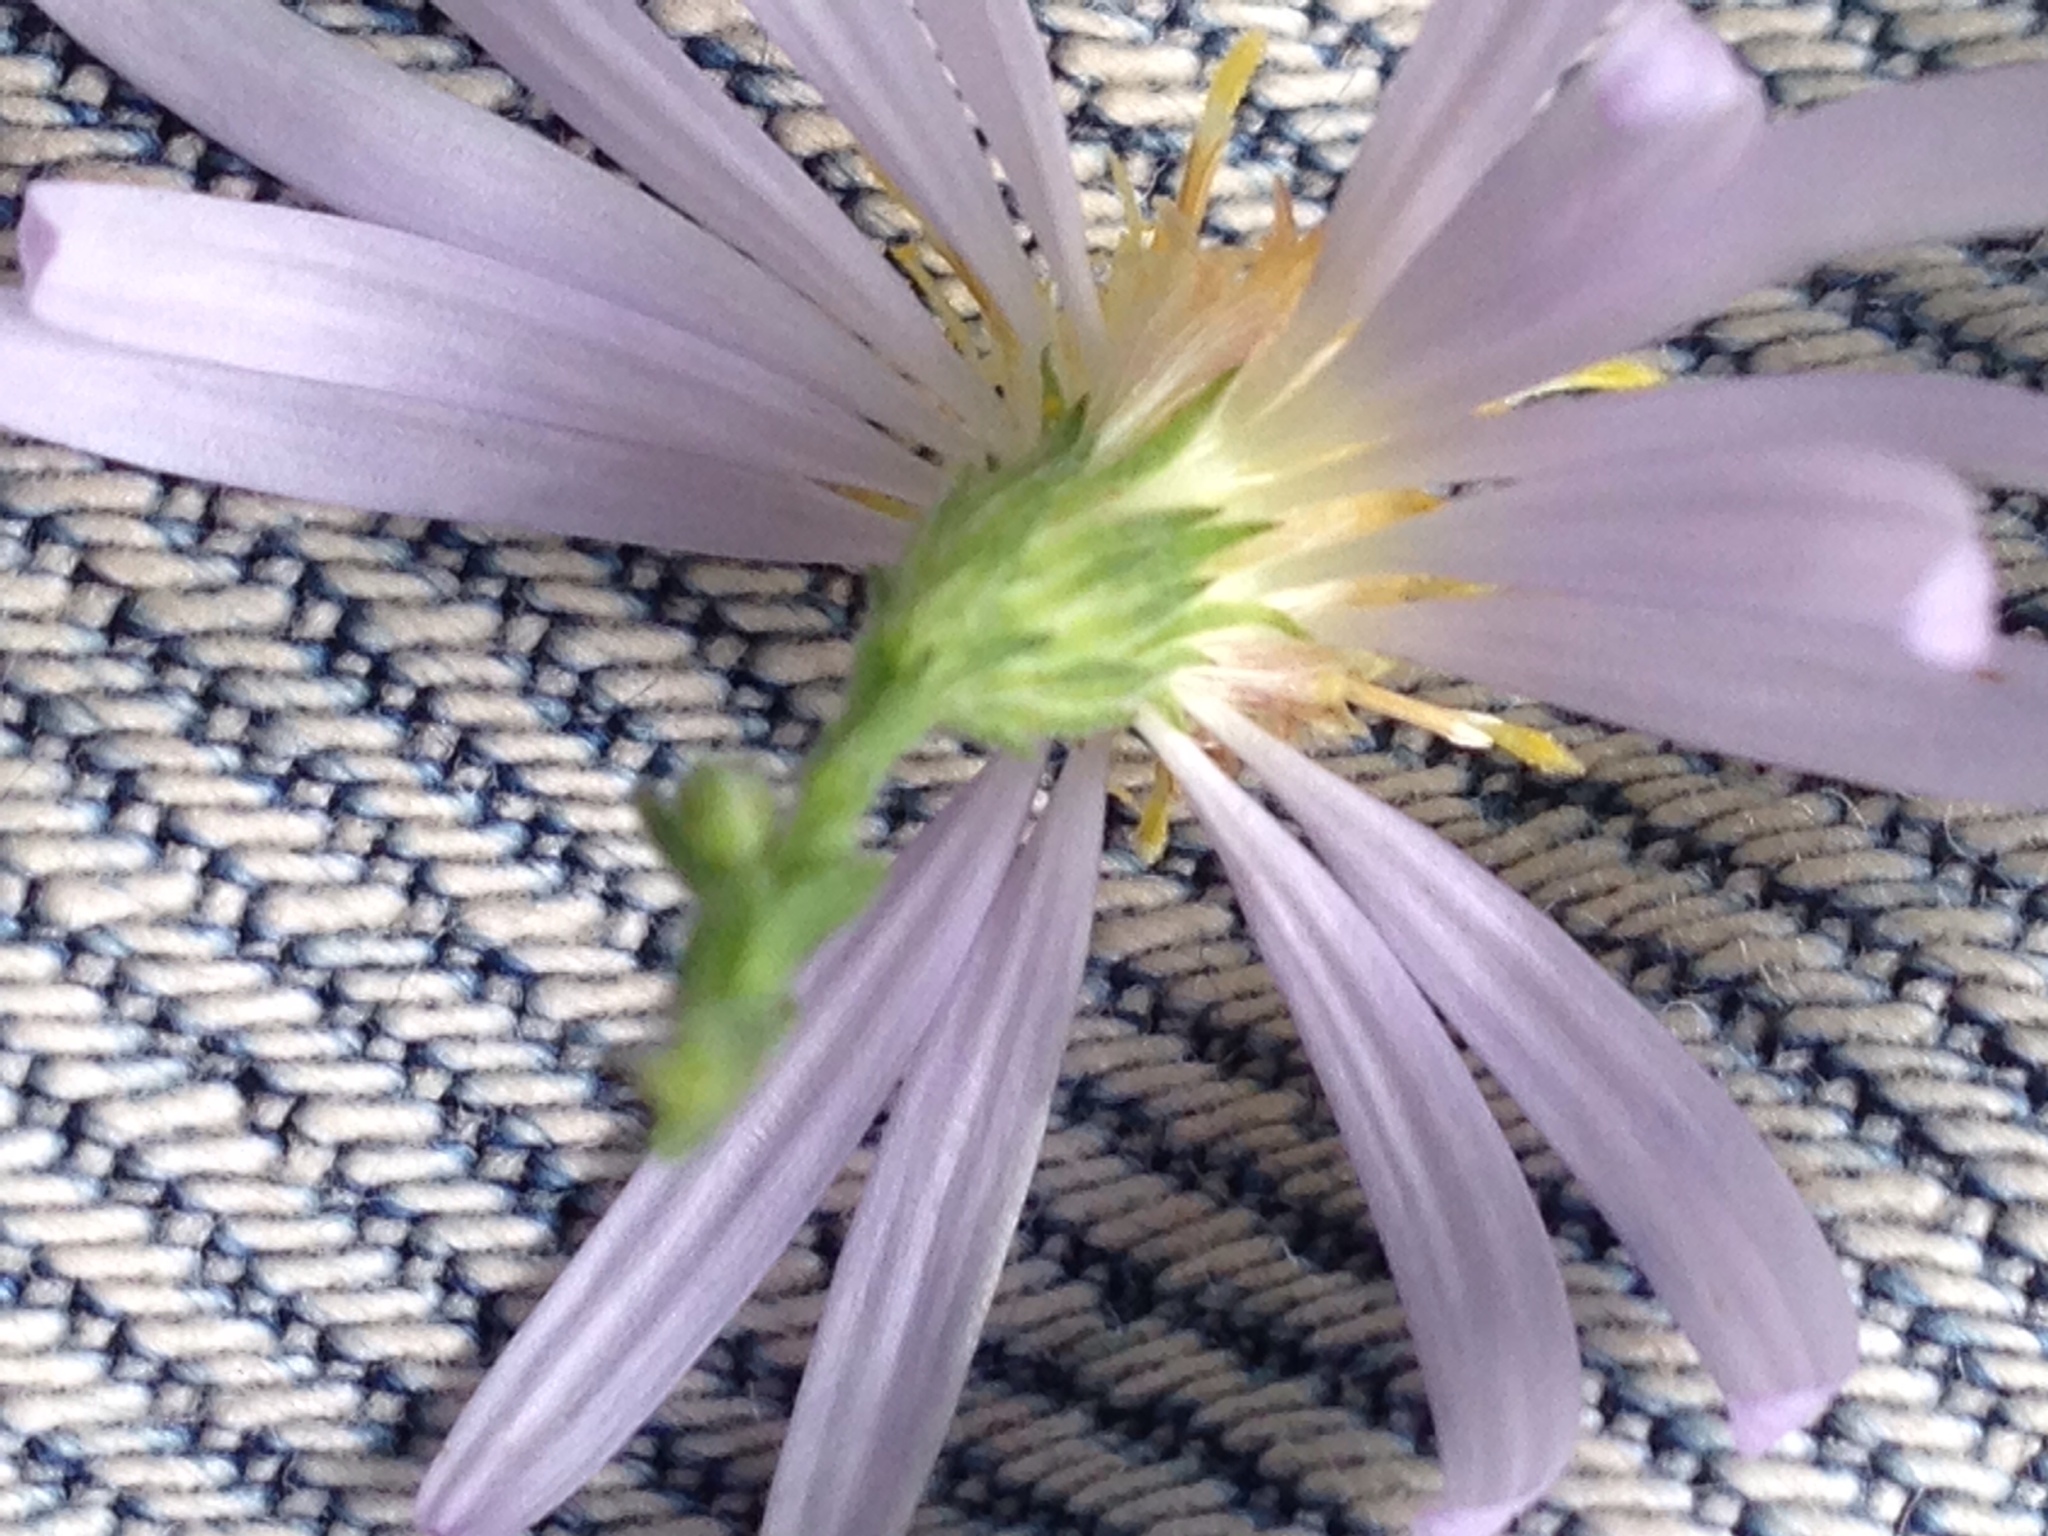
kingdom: Plantae
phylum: Tracheophyta
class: Magnoliopsida
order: Asterales
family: Asteraceae
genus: Symphyotrichum
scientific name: Symphyotrichum undulatum
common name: Clasping heart-leaf aster
